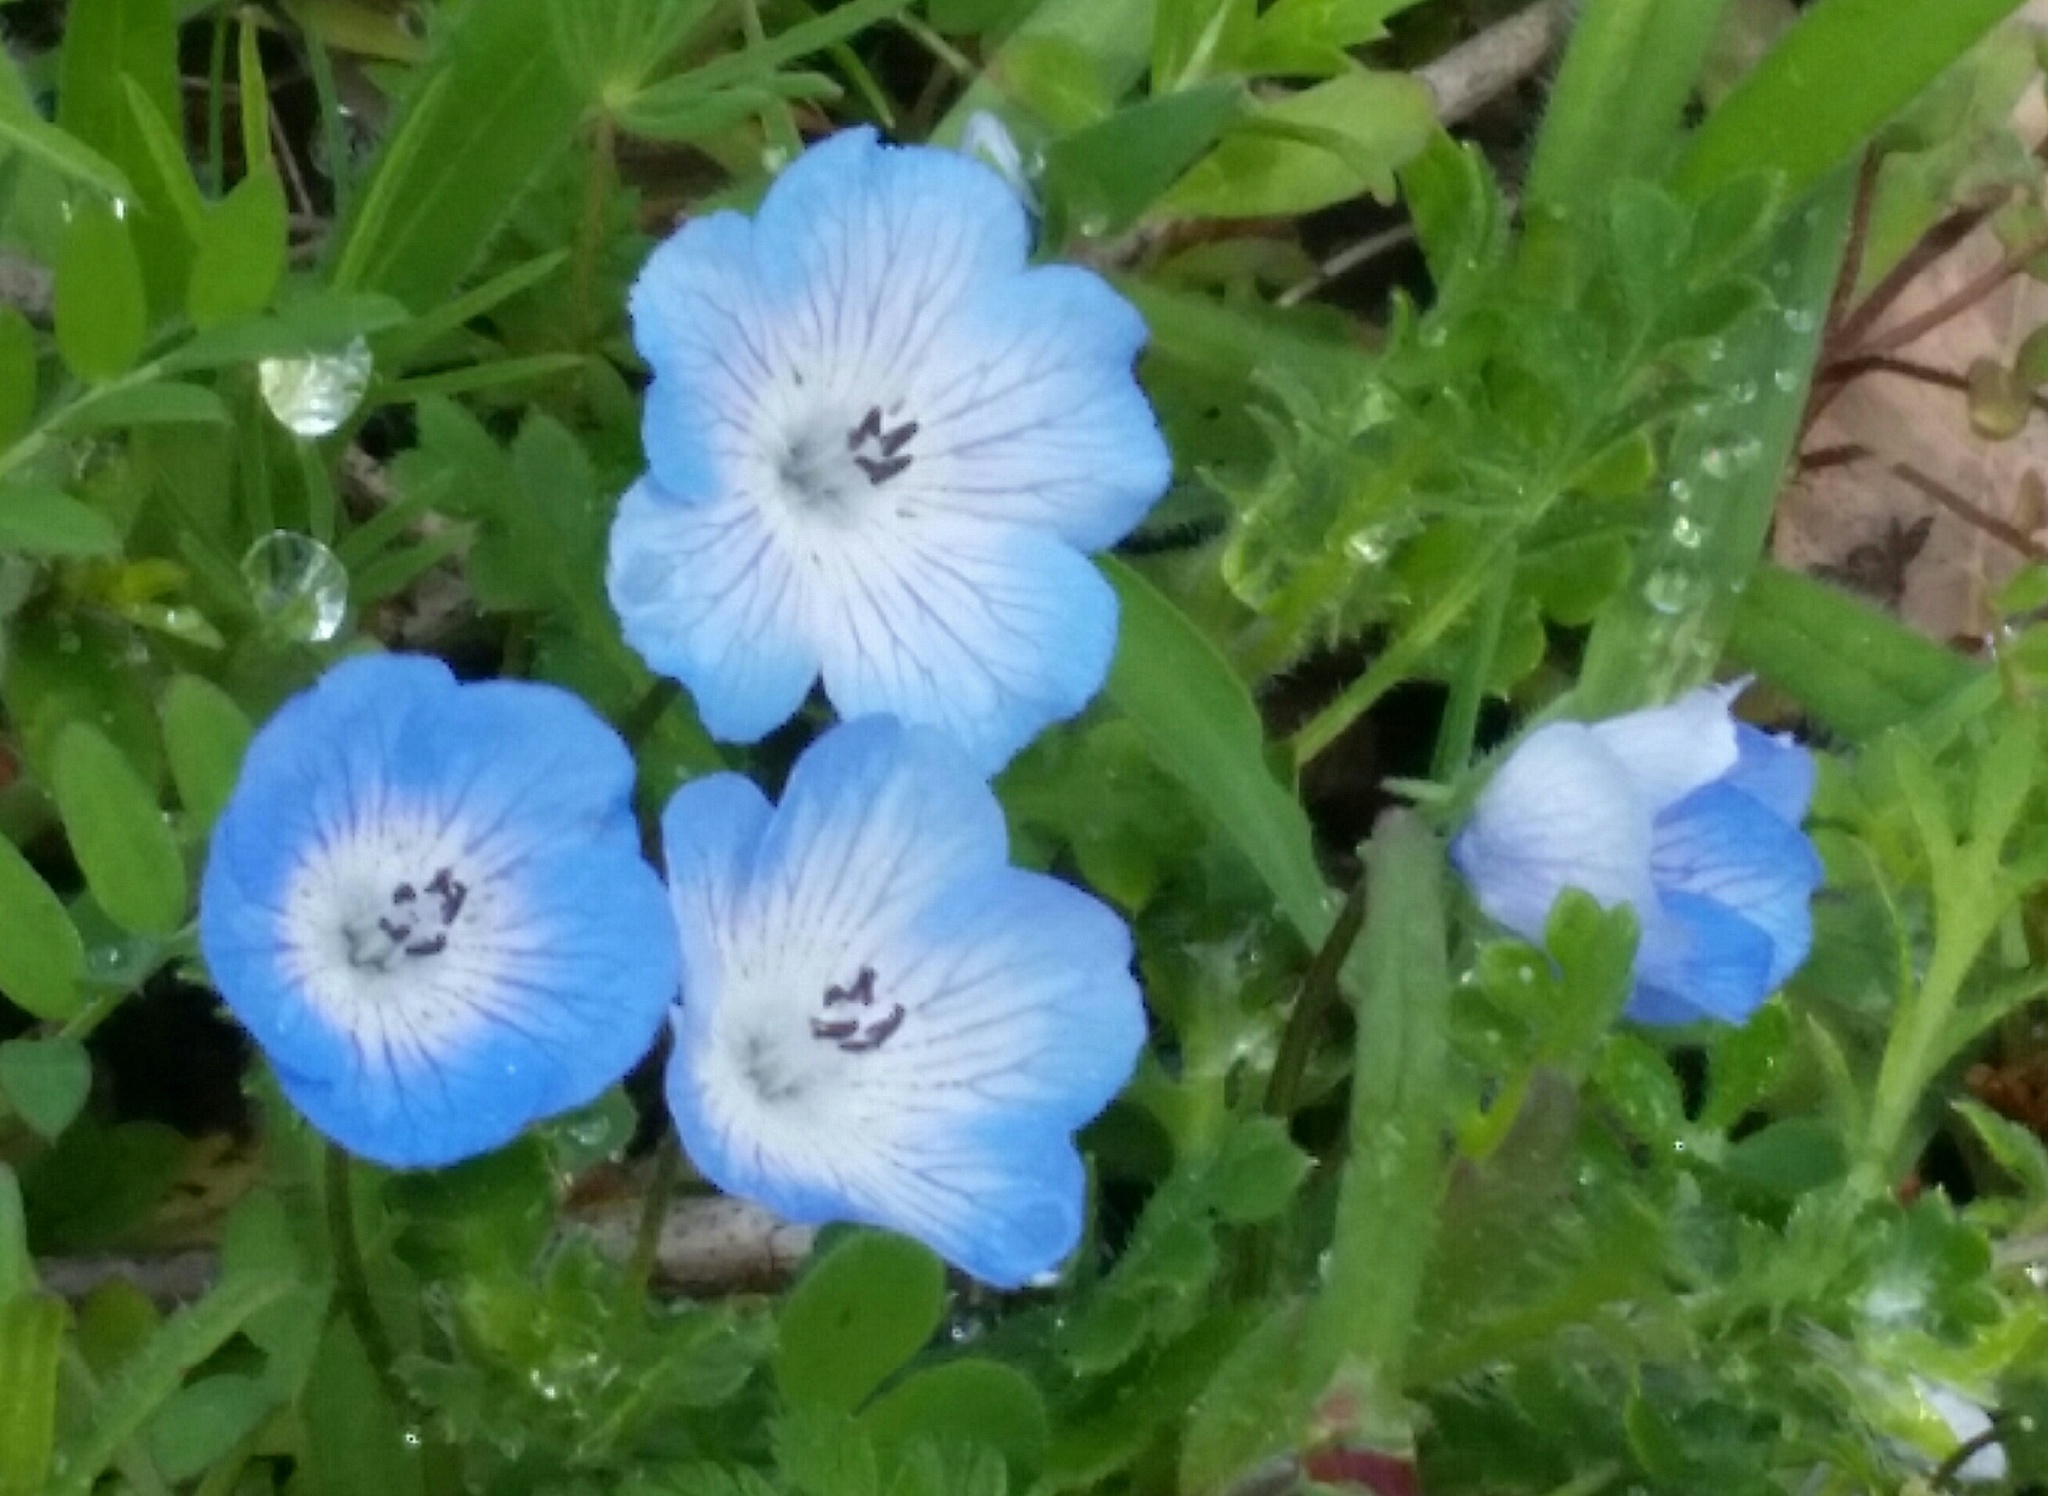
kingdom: Plantae
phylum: Tracheophyta
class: Magnoliopsida
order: Boraginales
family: Hydrophyllaceae
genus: Nemophila
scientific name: Nemophila menziesii
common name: Baby's-blue-eyes
